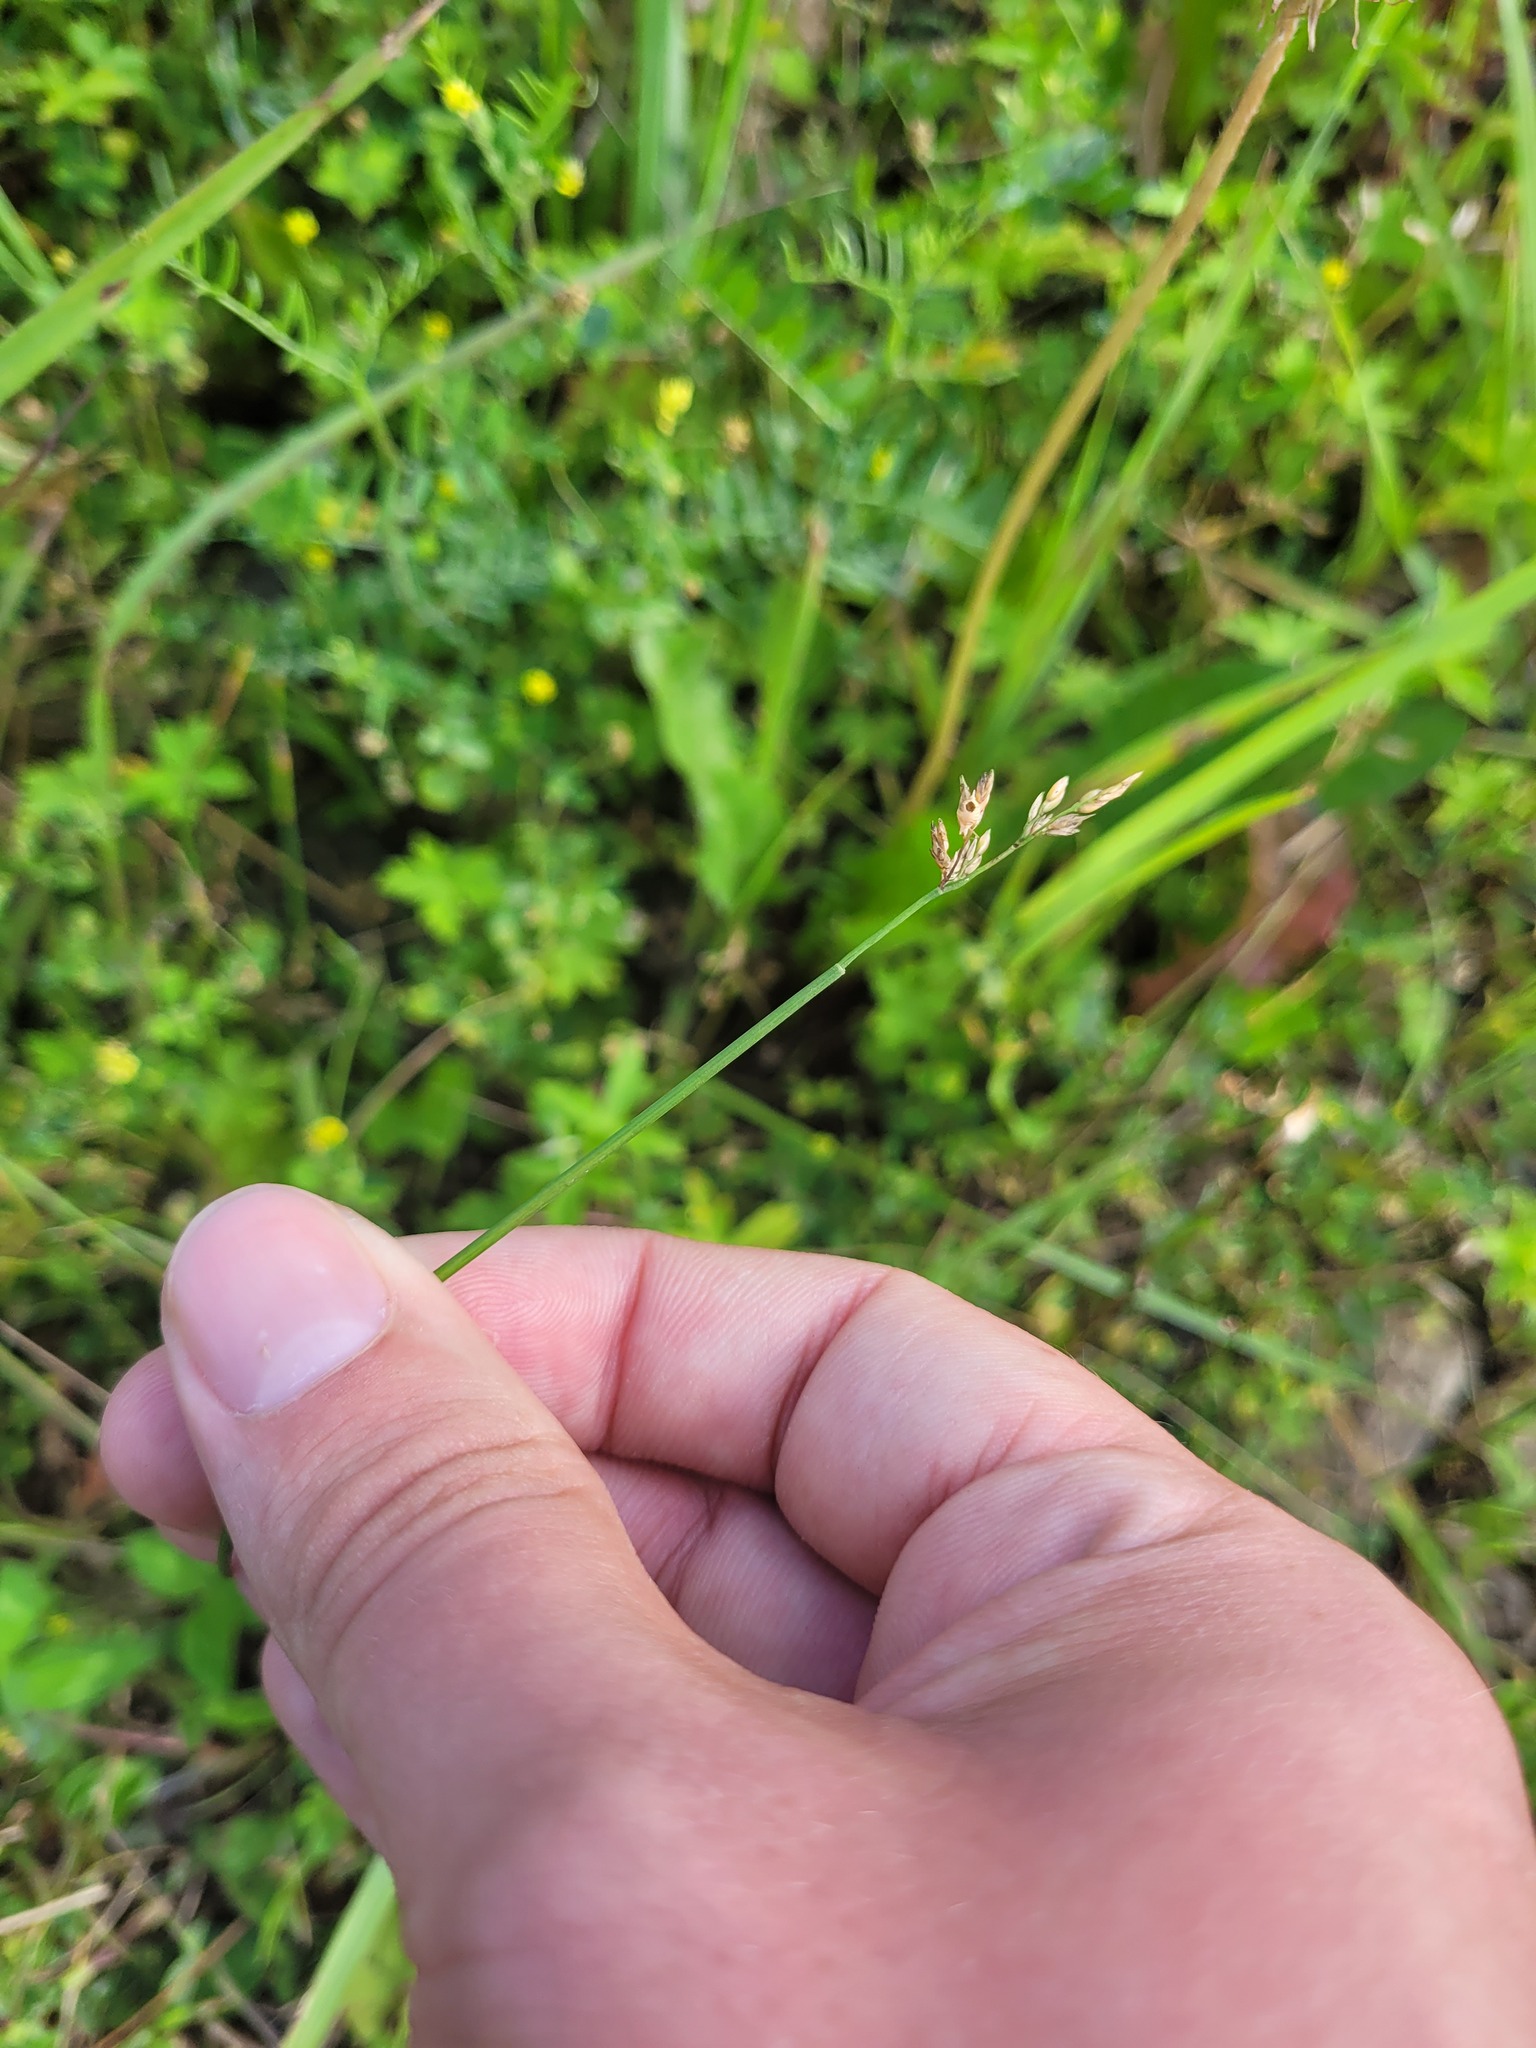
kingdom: Plantae
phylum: Tracheophyta
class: Liliopsida
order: Poales
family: Poaceae
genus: Poa
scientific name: Poa compressa
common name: Canada bluegrass
